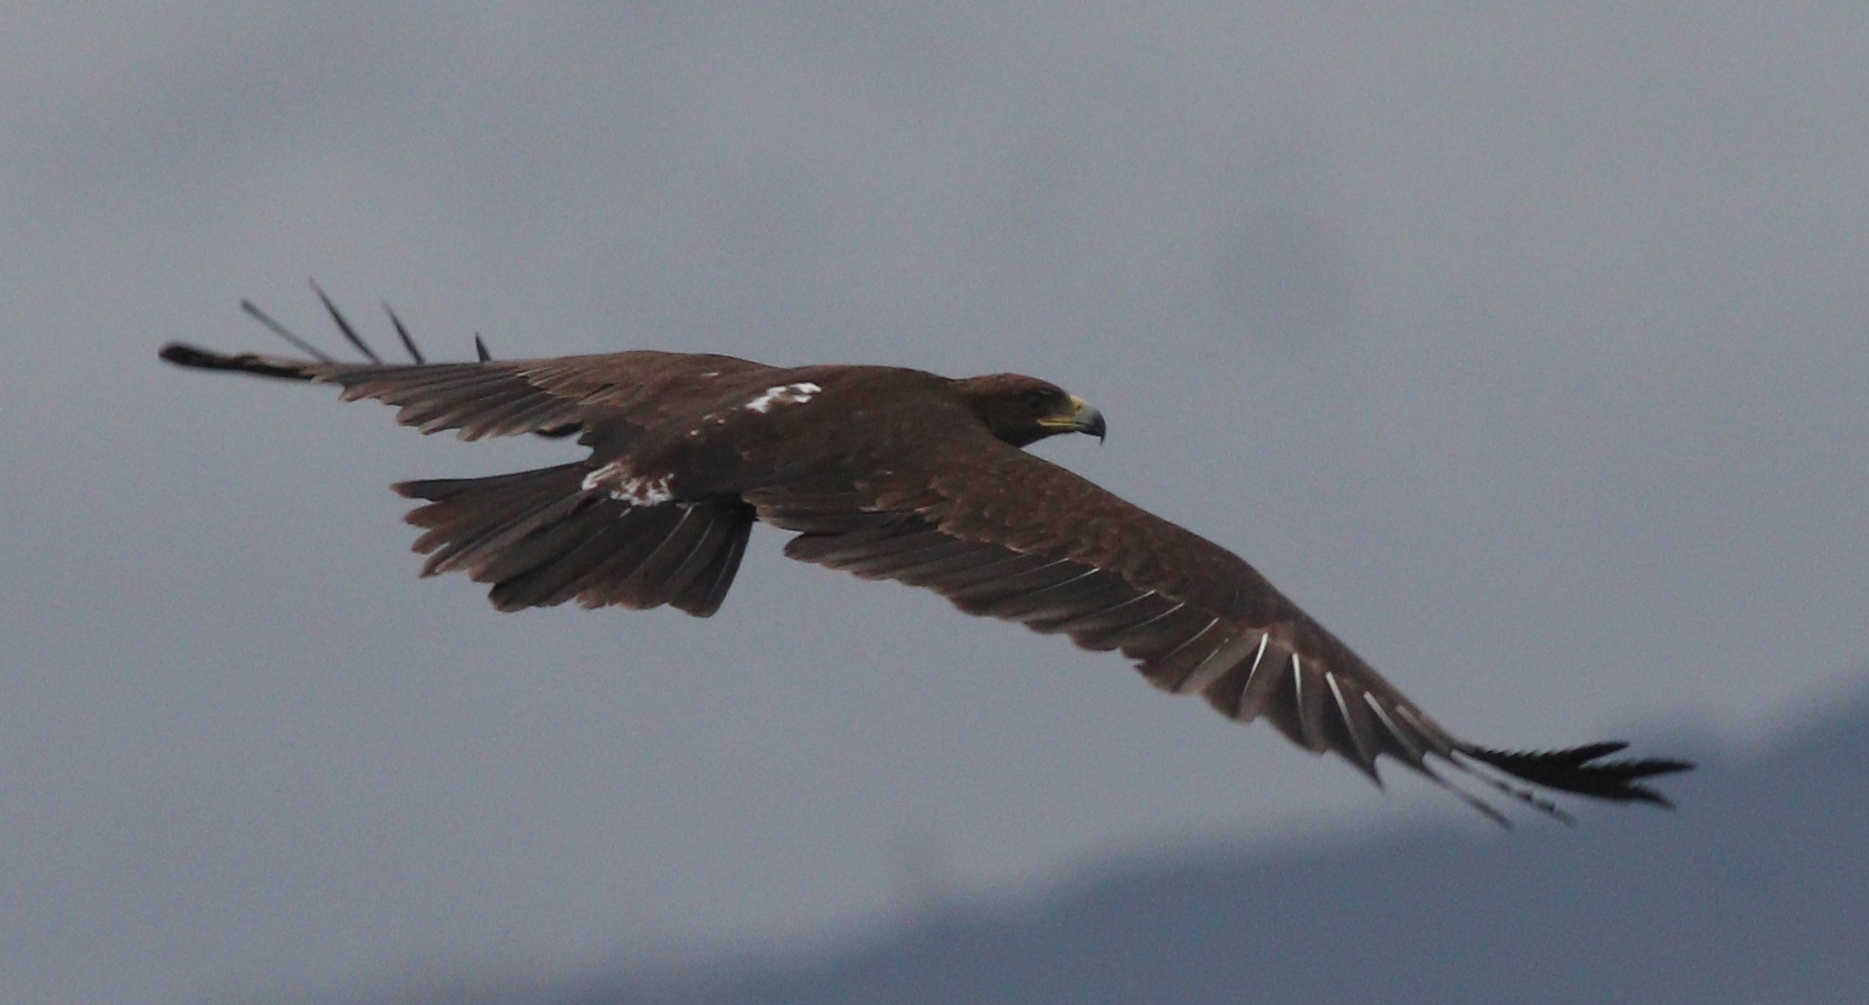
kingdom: Animalia
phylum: Chordata
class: Aves
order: Accipitriformes
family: Accipitridae
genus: Aquila
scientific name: Aquila clanga
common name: Greater spotted eagle
